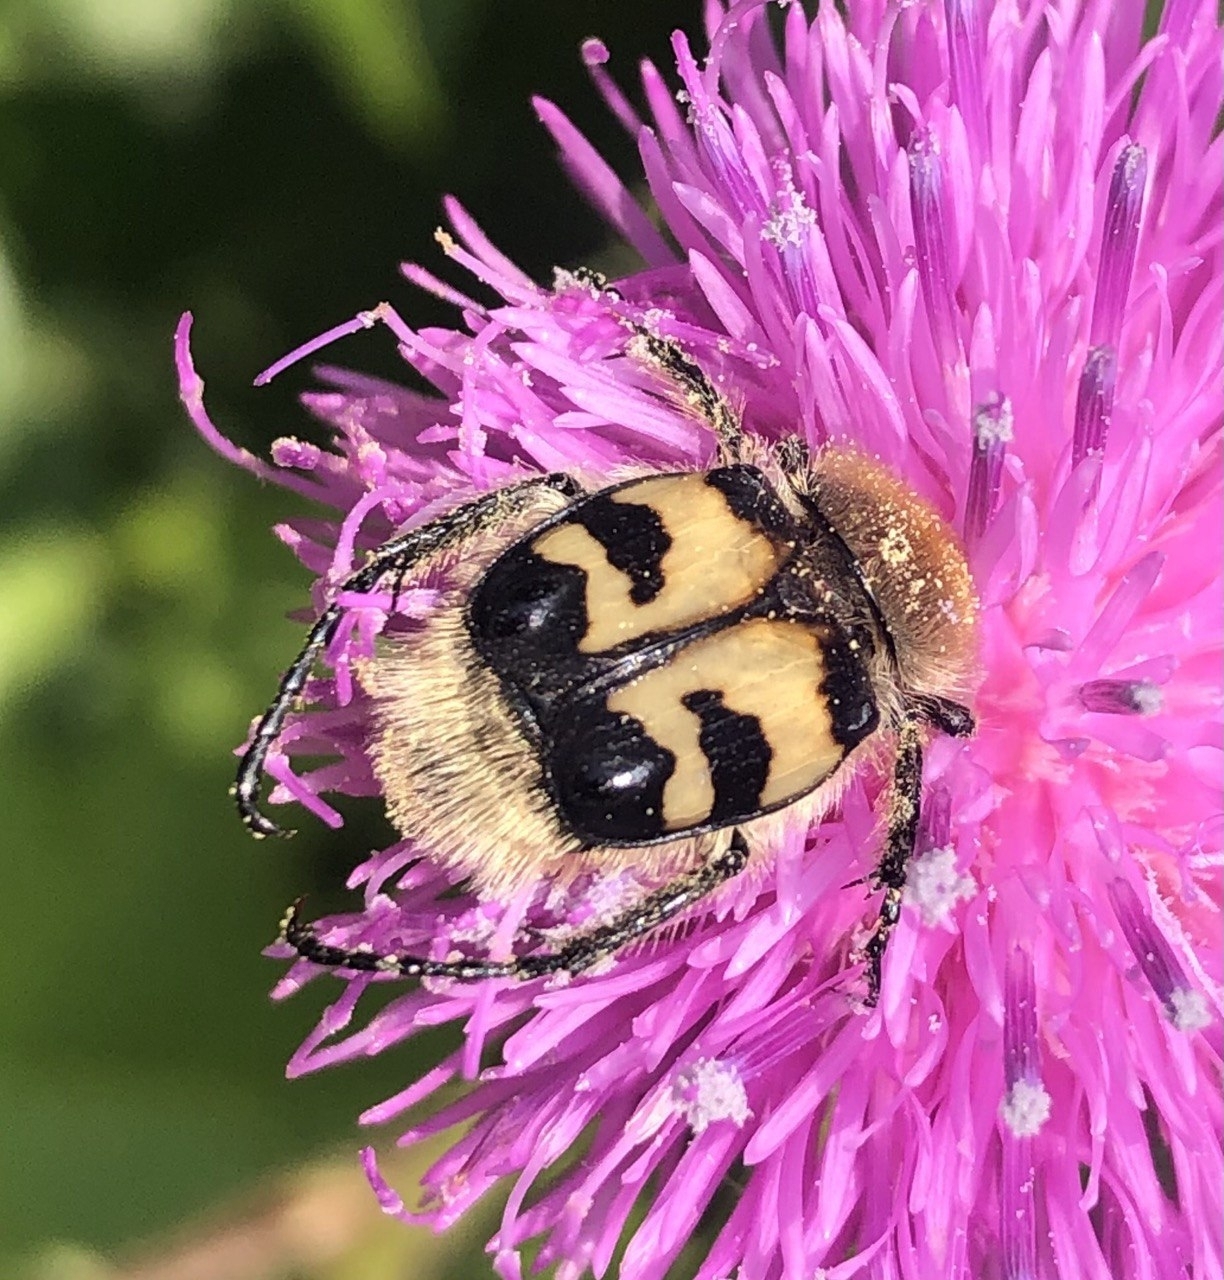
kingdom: Animalia
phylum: Arthropoda
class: Insecta
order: Coleoptera
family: Scarabaeidae
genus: Trichius
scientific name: Trichius fasciatus
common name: Bee beetle
